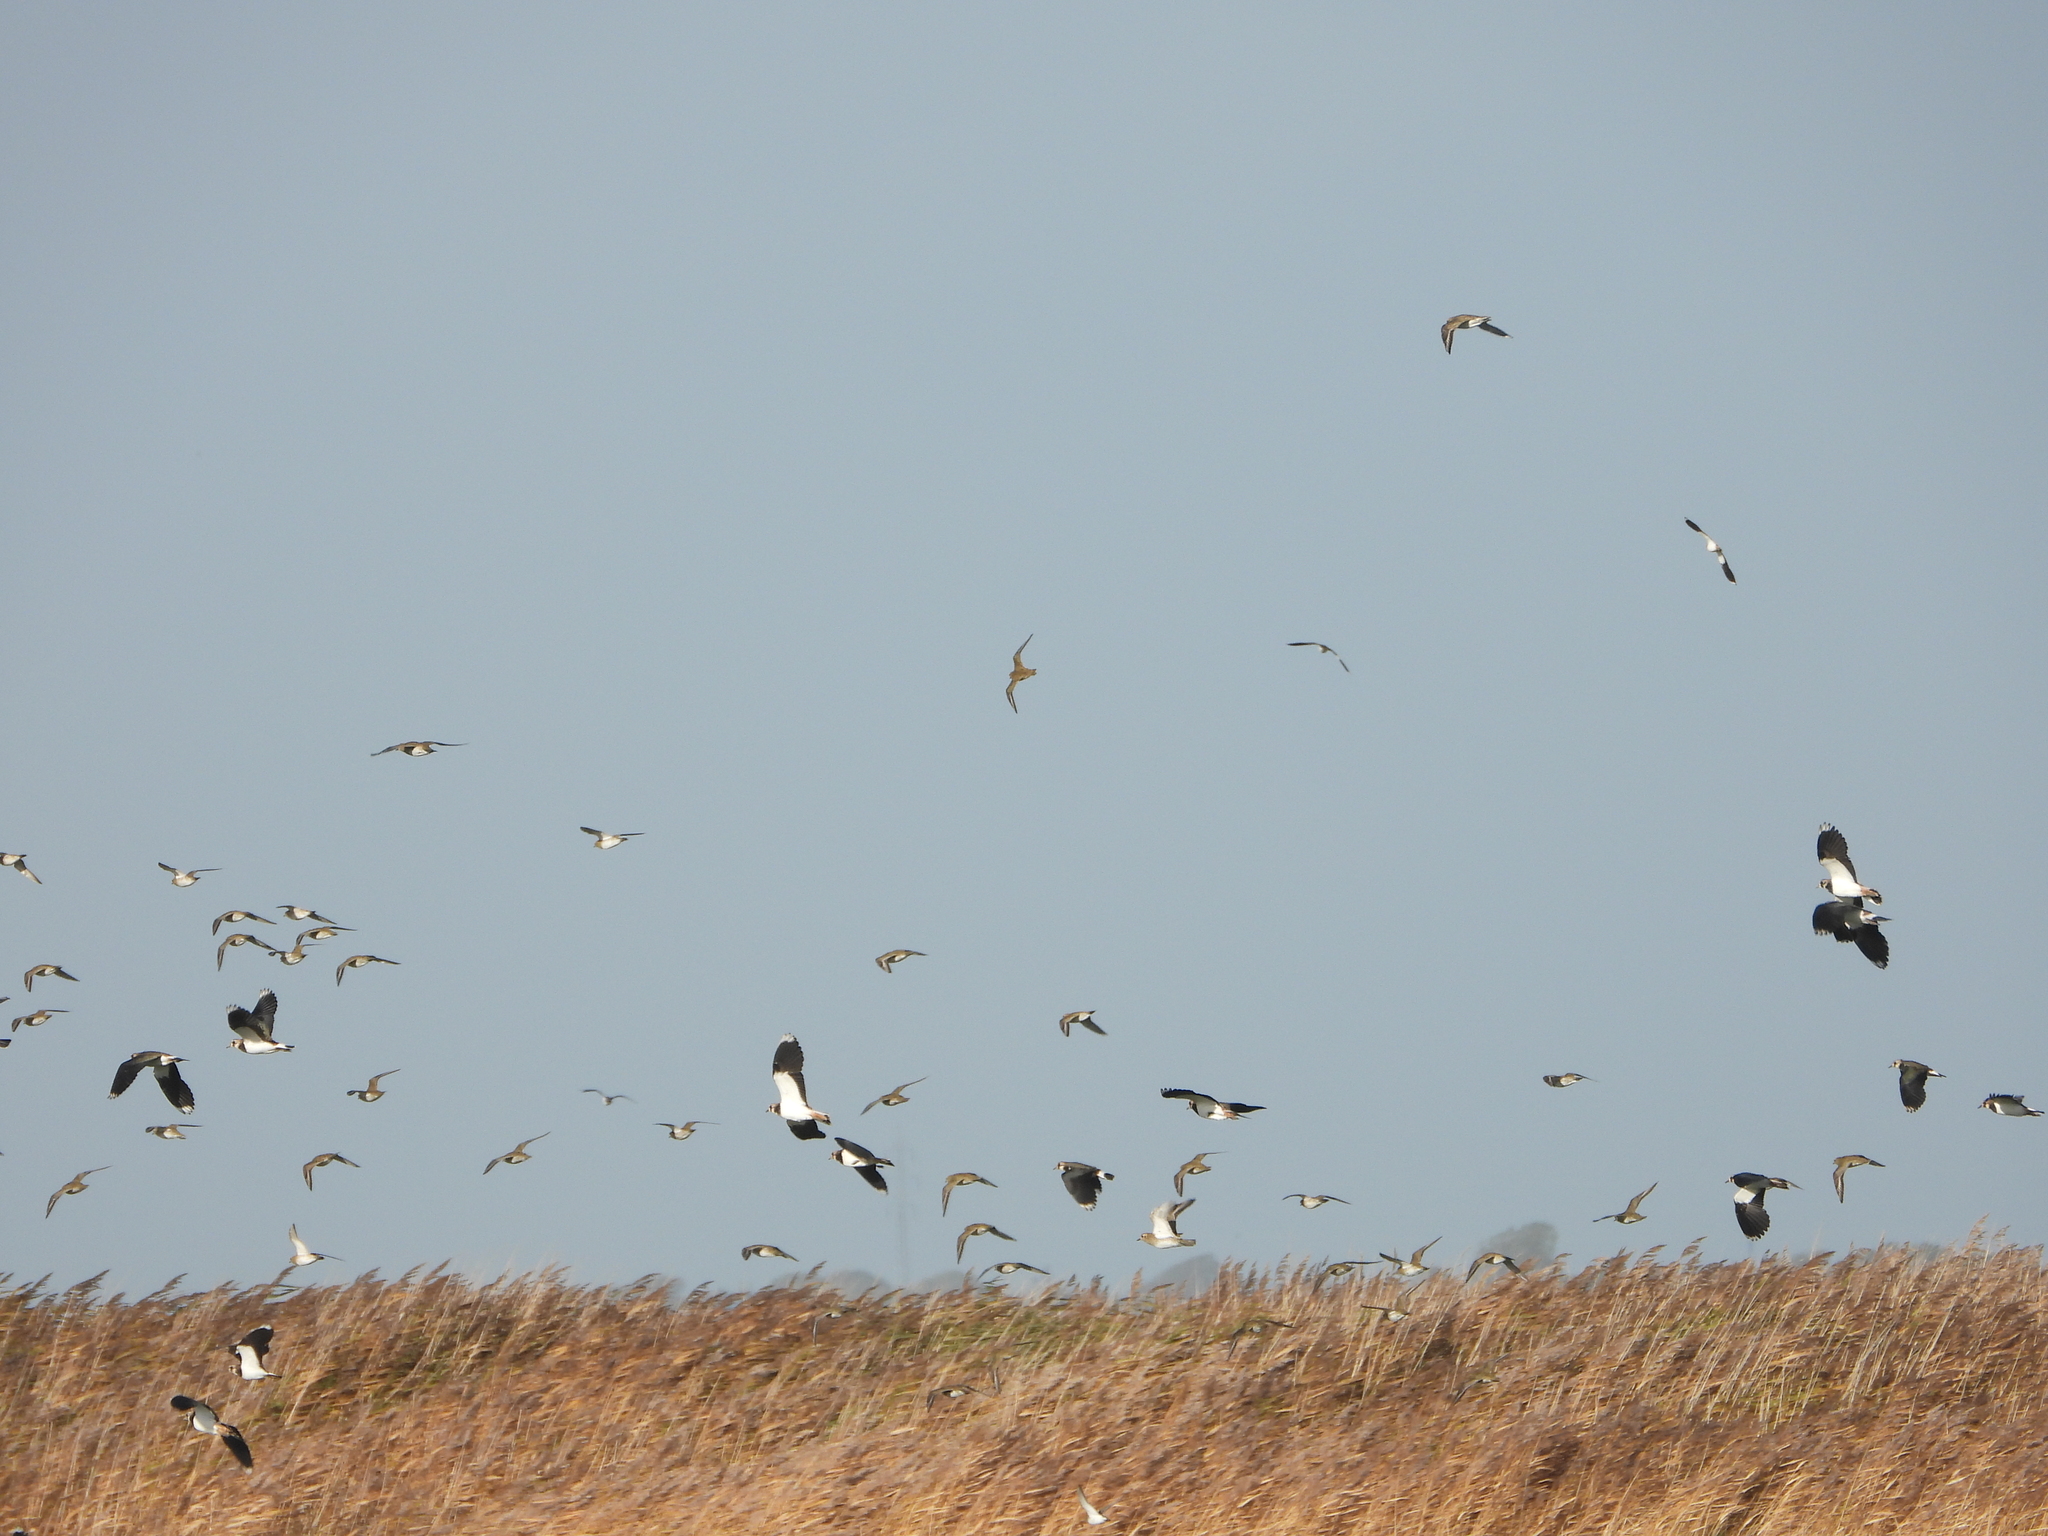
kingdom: Animalia
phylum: Chordata
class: Aves
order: Charadriiformes
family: Charadriidae
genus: Vanellus
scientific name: Vanellus vanellus
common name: Northern lapwing
